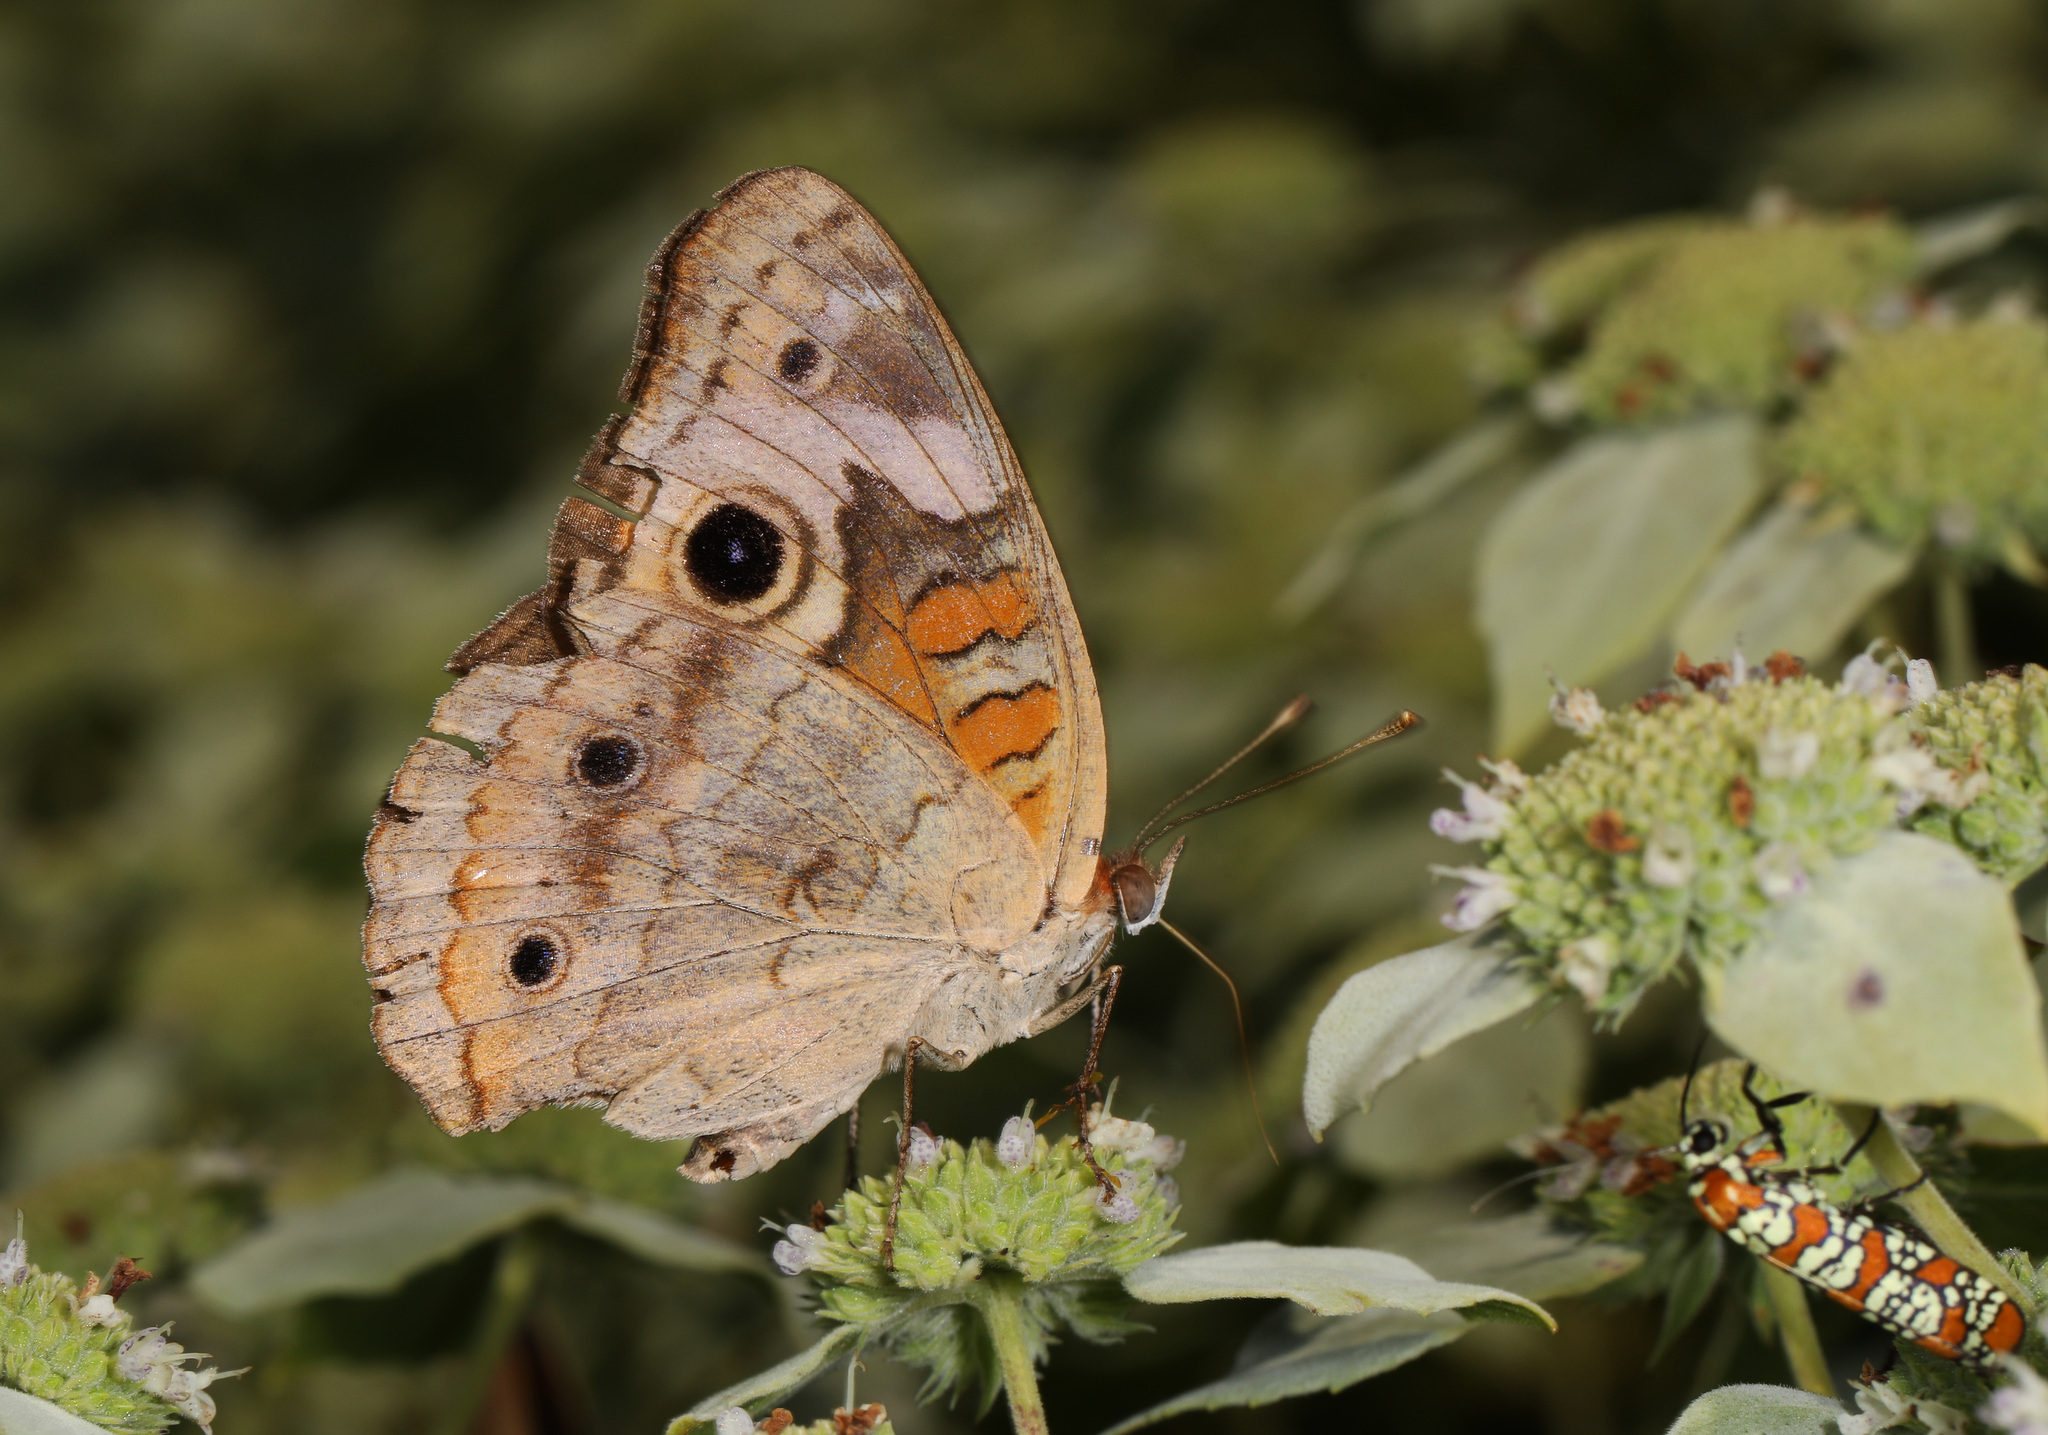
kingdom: Animalia
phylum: Arthropoda
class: Insecta
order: Lepidoptera
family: Nymphalidae
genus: Junonia
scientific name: Junonia coenia
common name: Common buckeye
